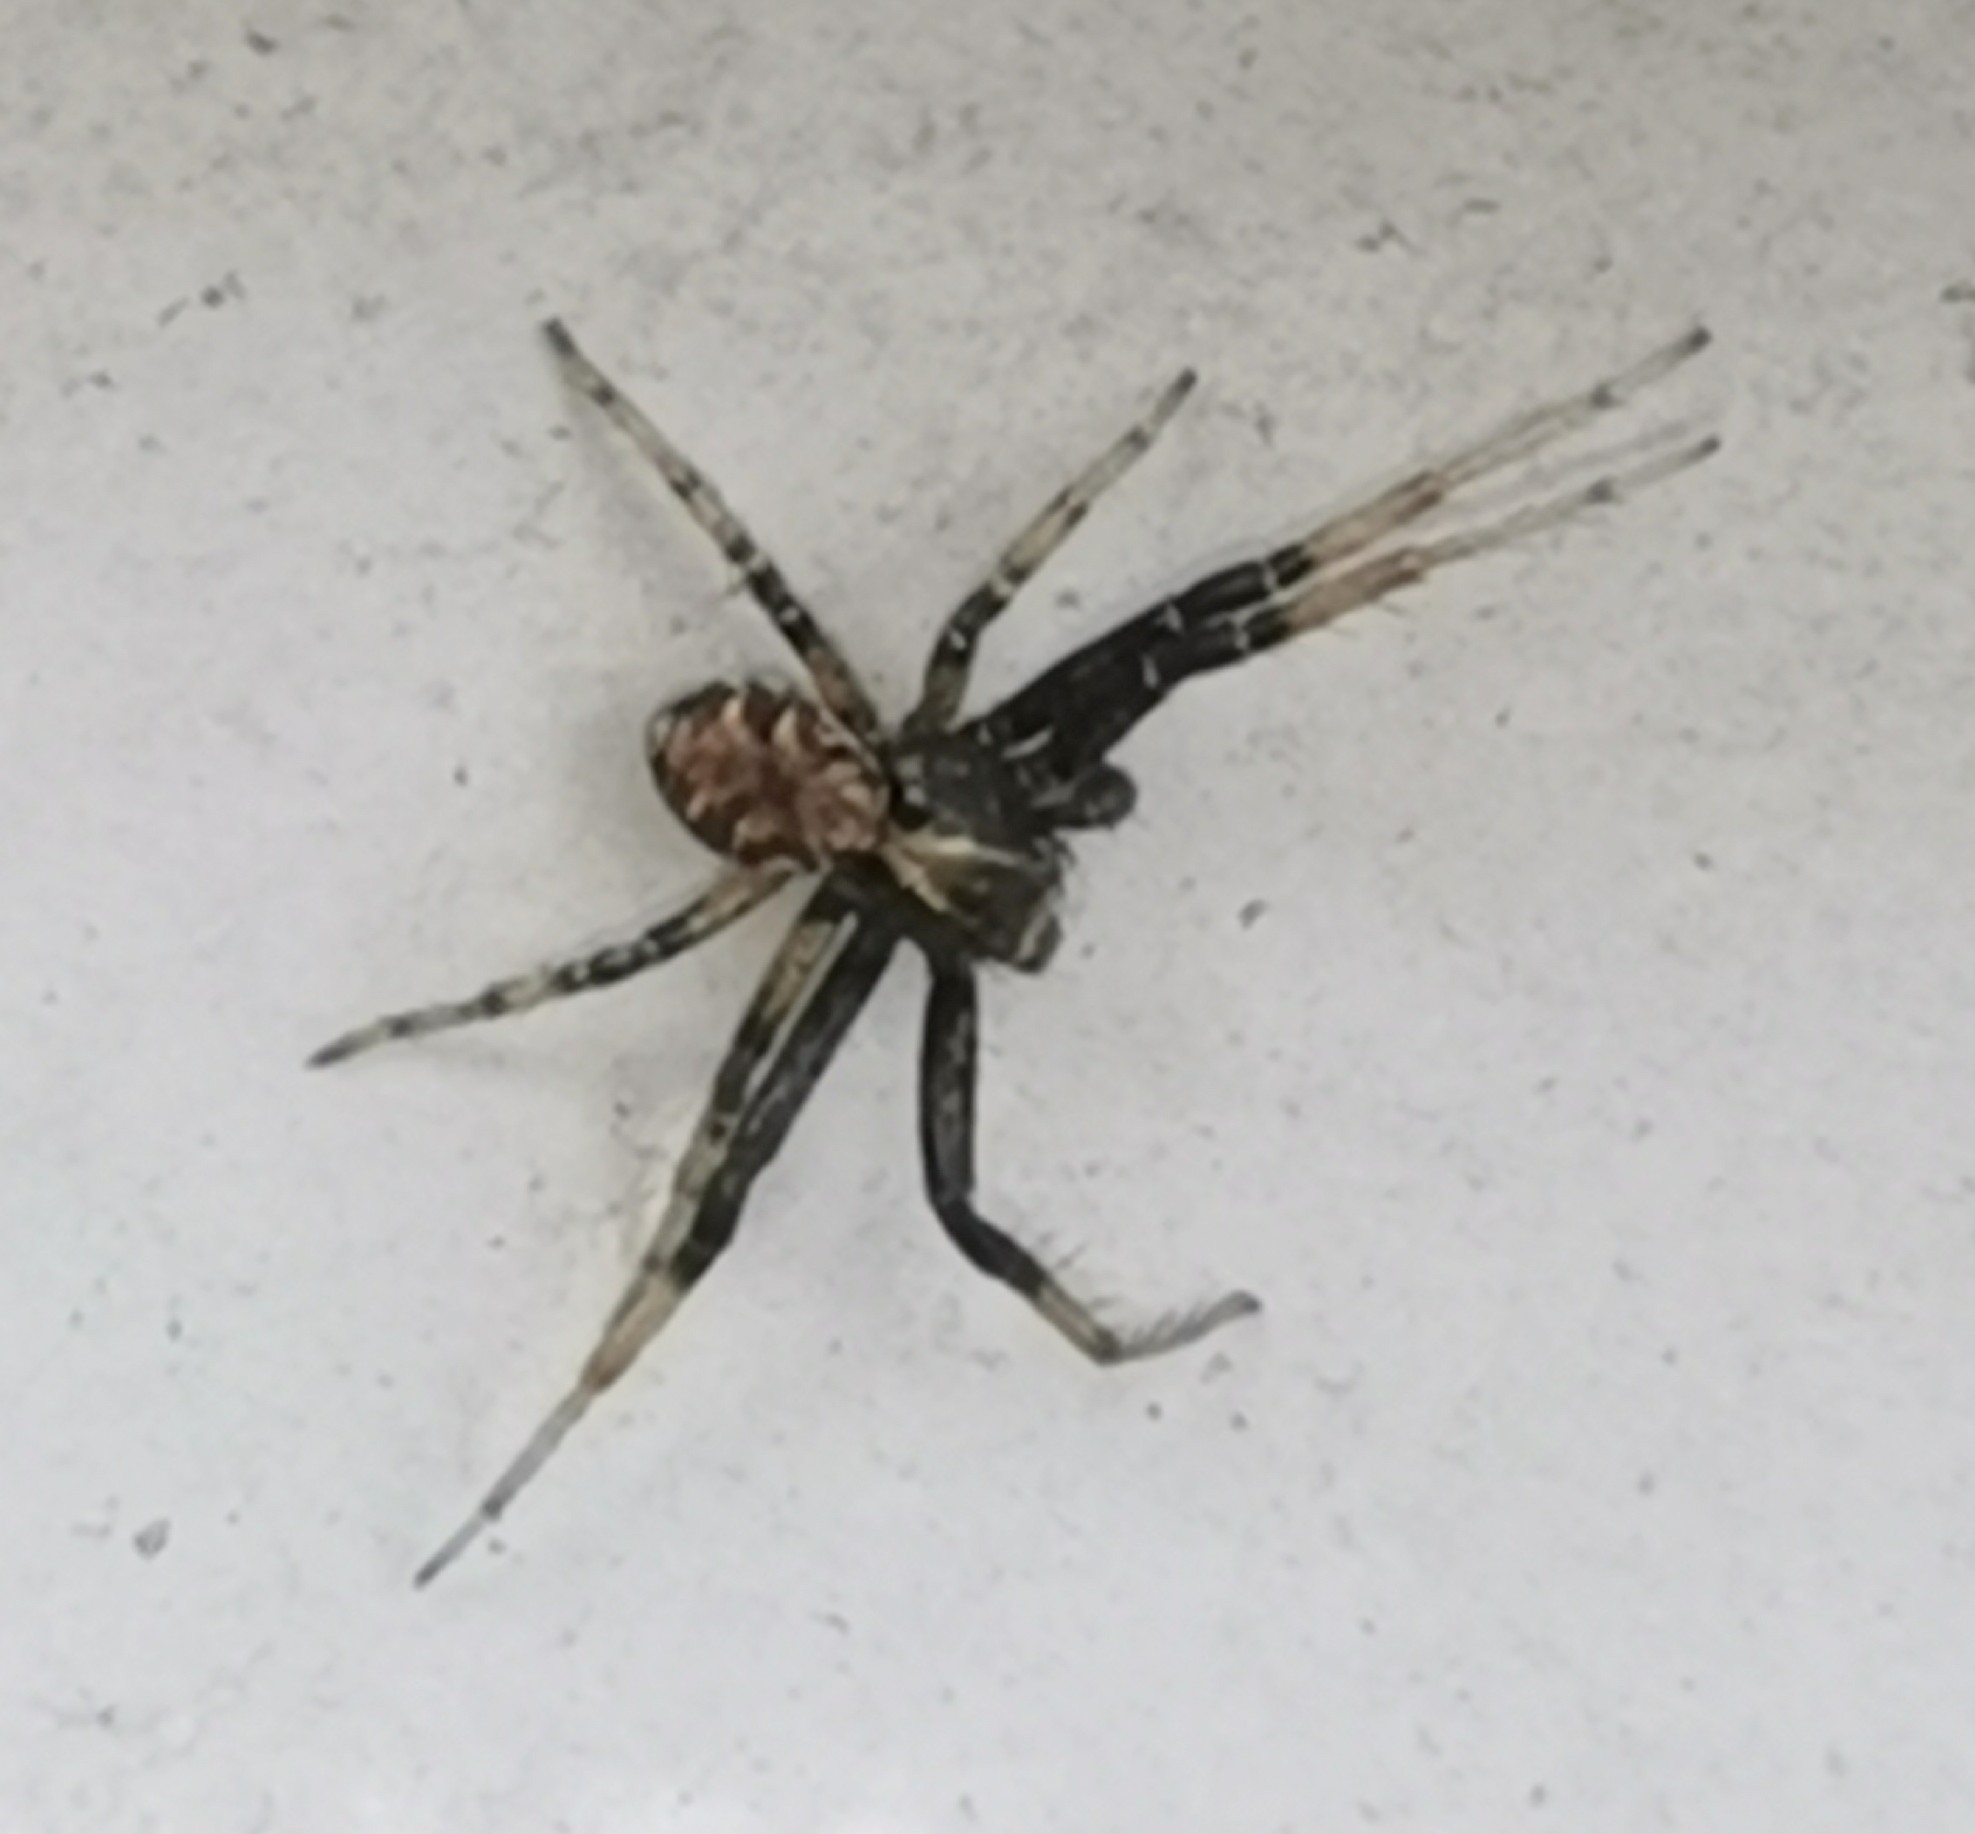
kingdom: Animalia
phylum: Arthropoda
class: Arachnida
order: Araneae
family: Thomisidae
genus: Xysticus
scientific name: Xysticus
